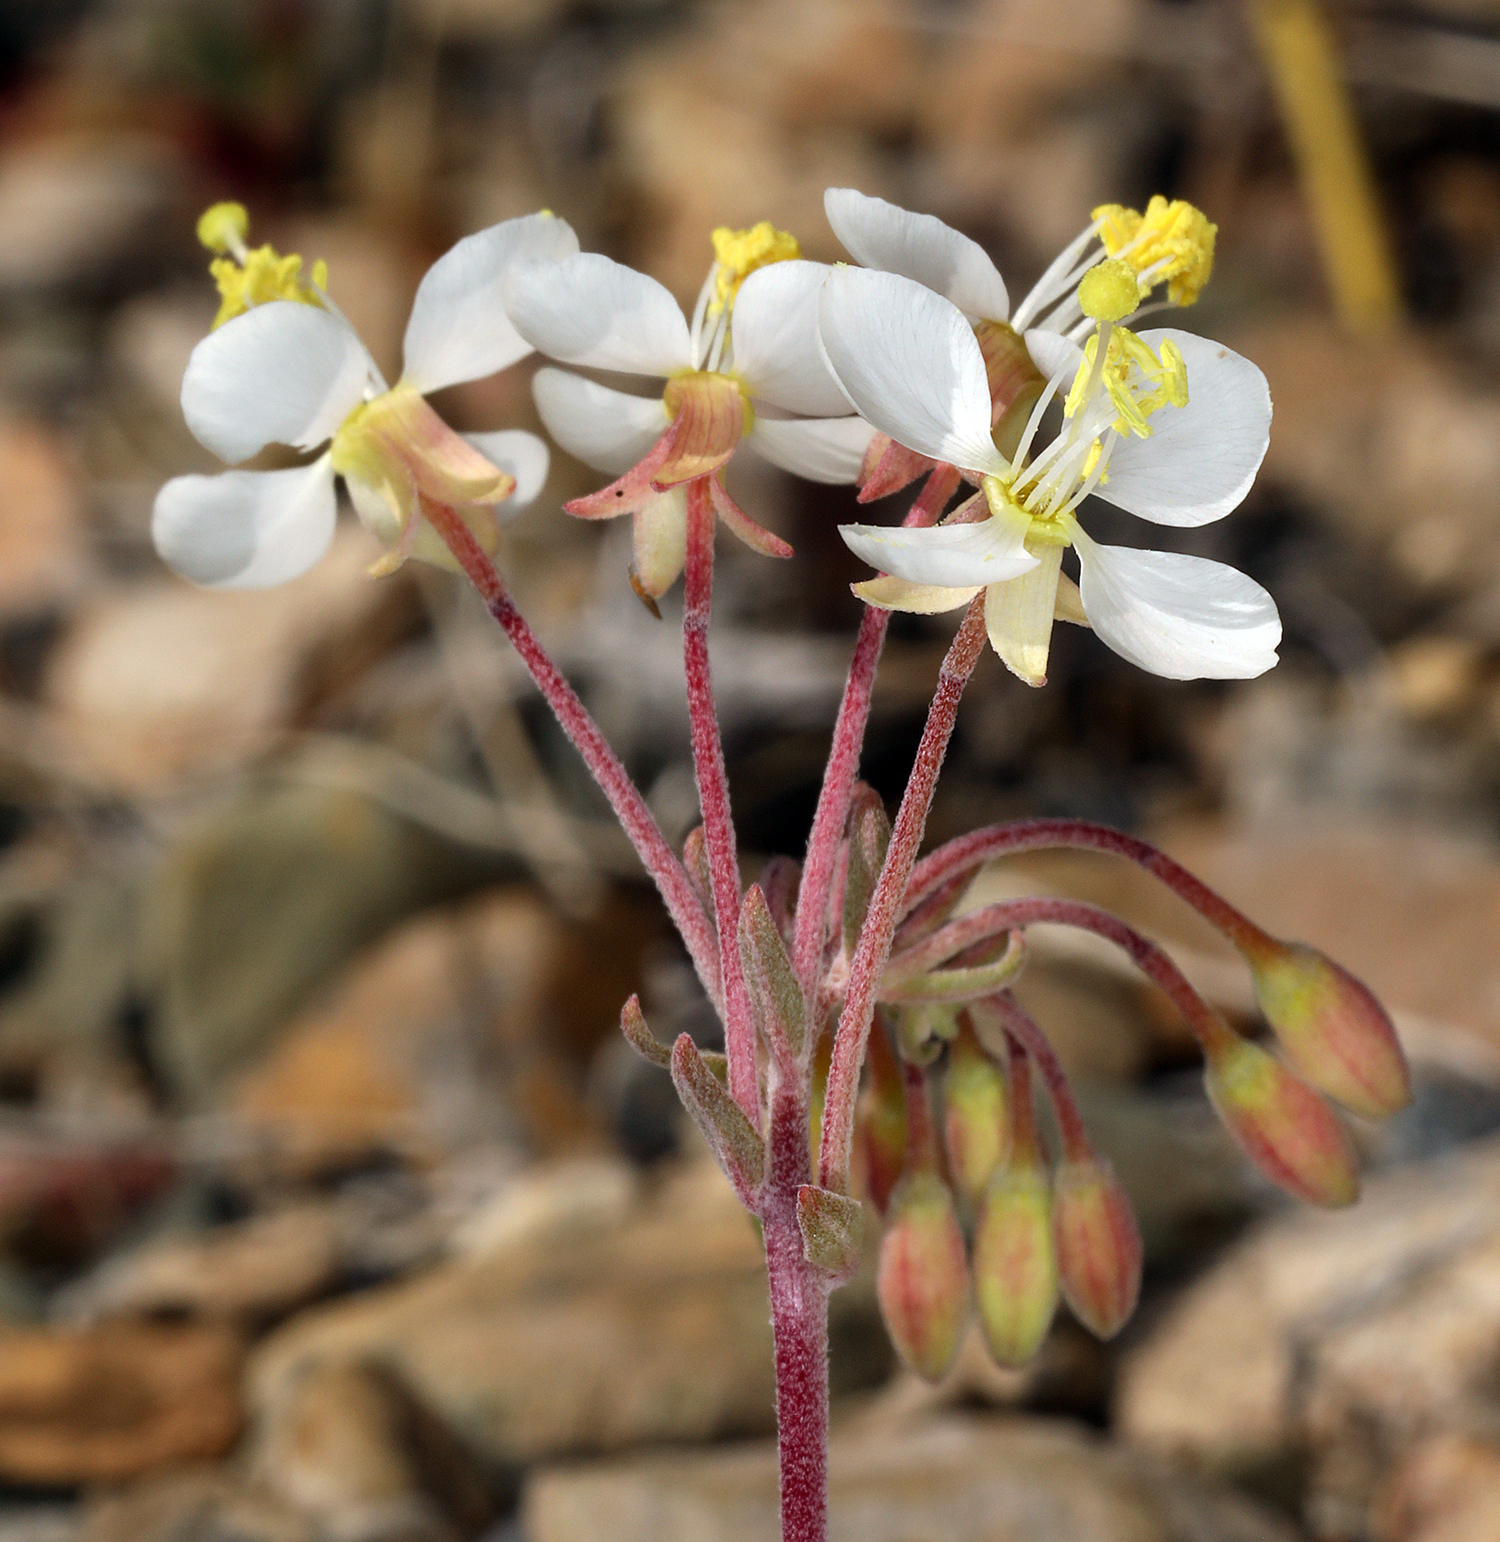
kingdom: Plantae
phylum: Tracheophyta
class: Magnoliopsida
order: Myrtales
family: Onagraceae
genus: Eremothera
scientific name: Eremothera boothii
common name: Booth's evening primrose
